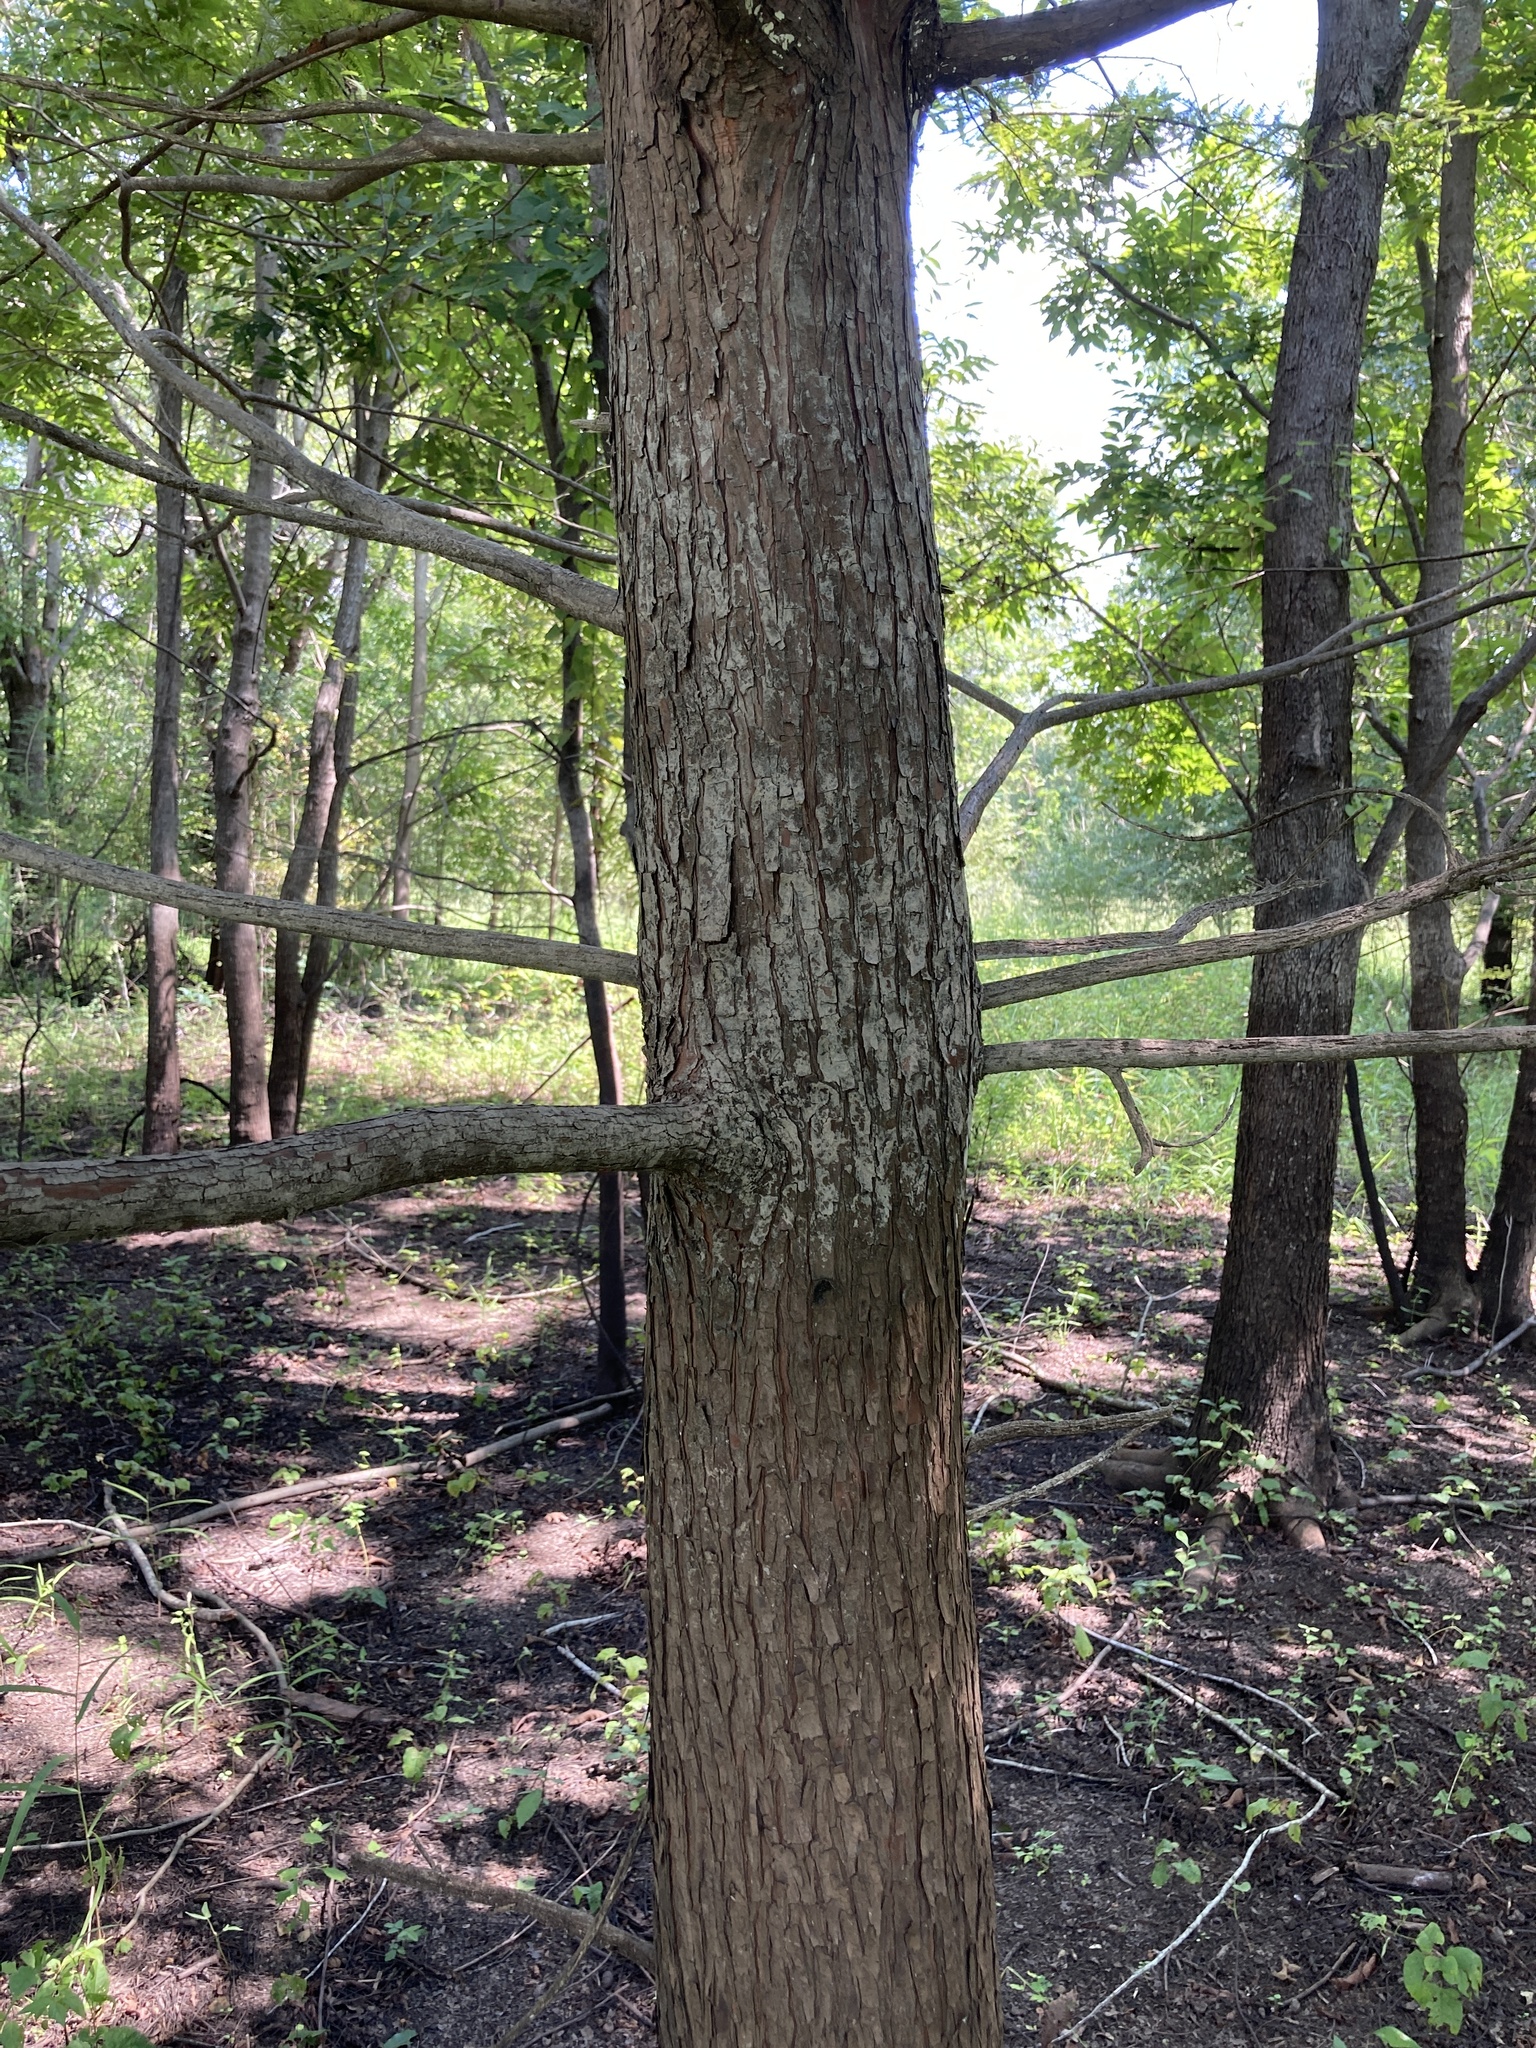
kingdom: Plantae
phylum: Tracheophyta
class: Pinopsida
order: Pinales
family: Cupressaceae
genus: Taxodium
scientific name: Taxodium distichum
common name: Bald cypress
